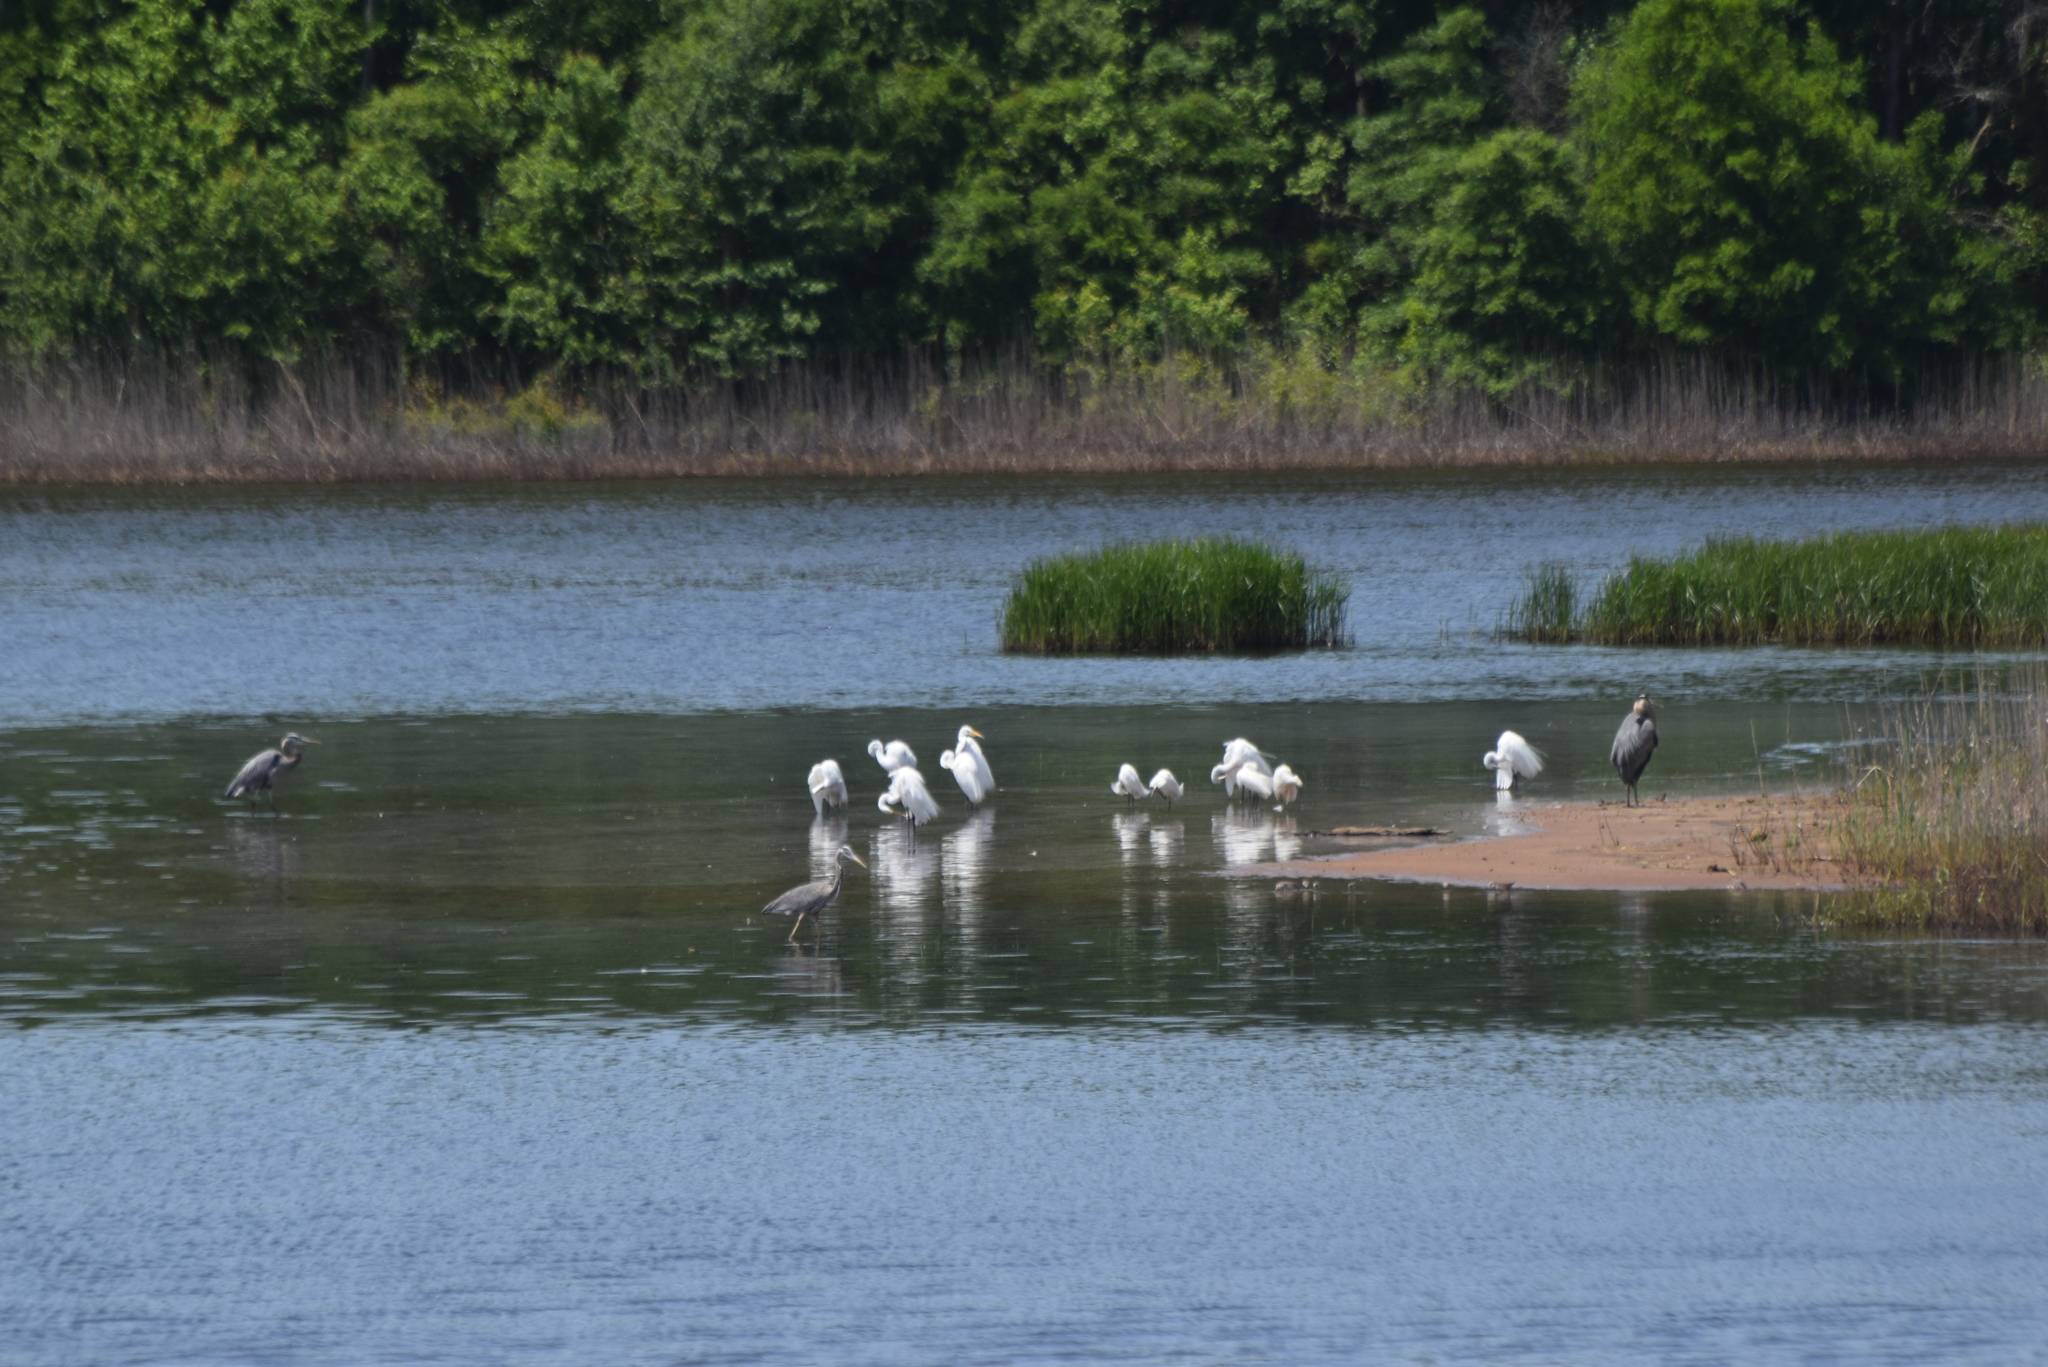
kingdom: Animalia
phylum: Chordata
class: Aves
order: Pelecaniformes
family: Ardeidae
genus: Ardea
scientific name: Ardea alba
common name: Great egret
